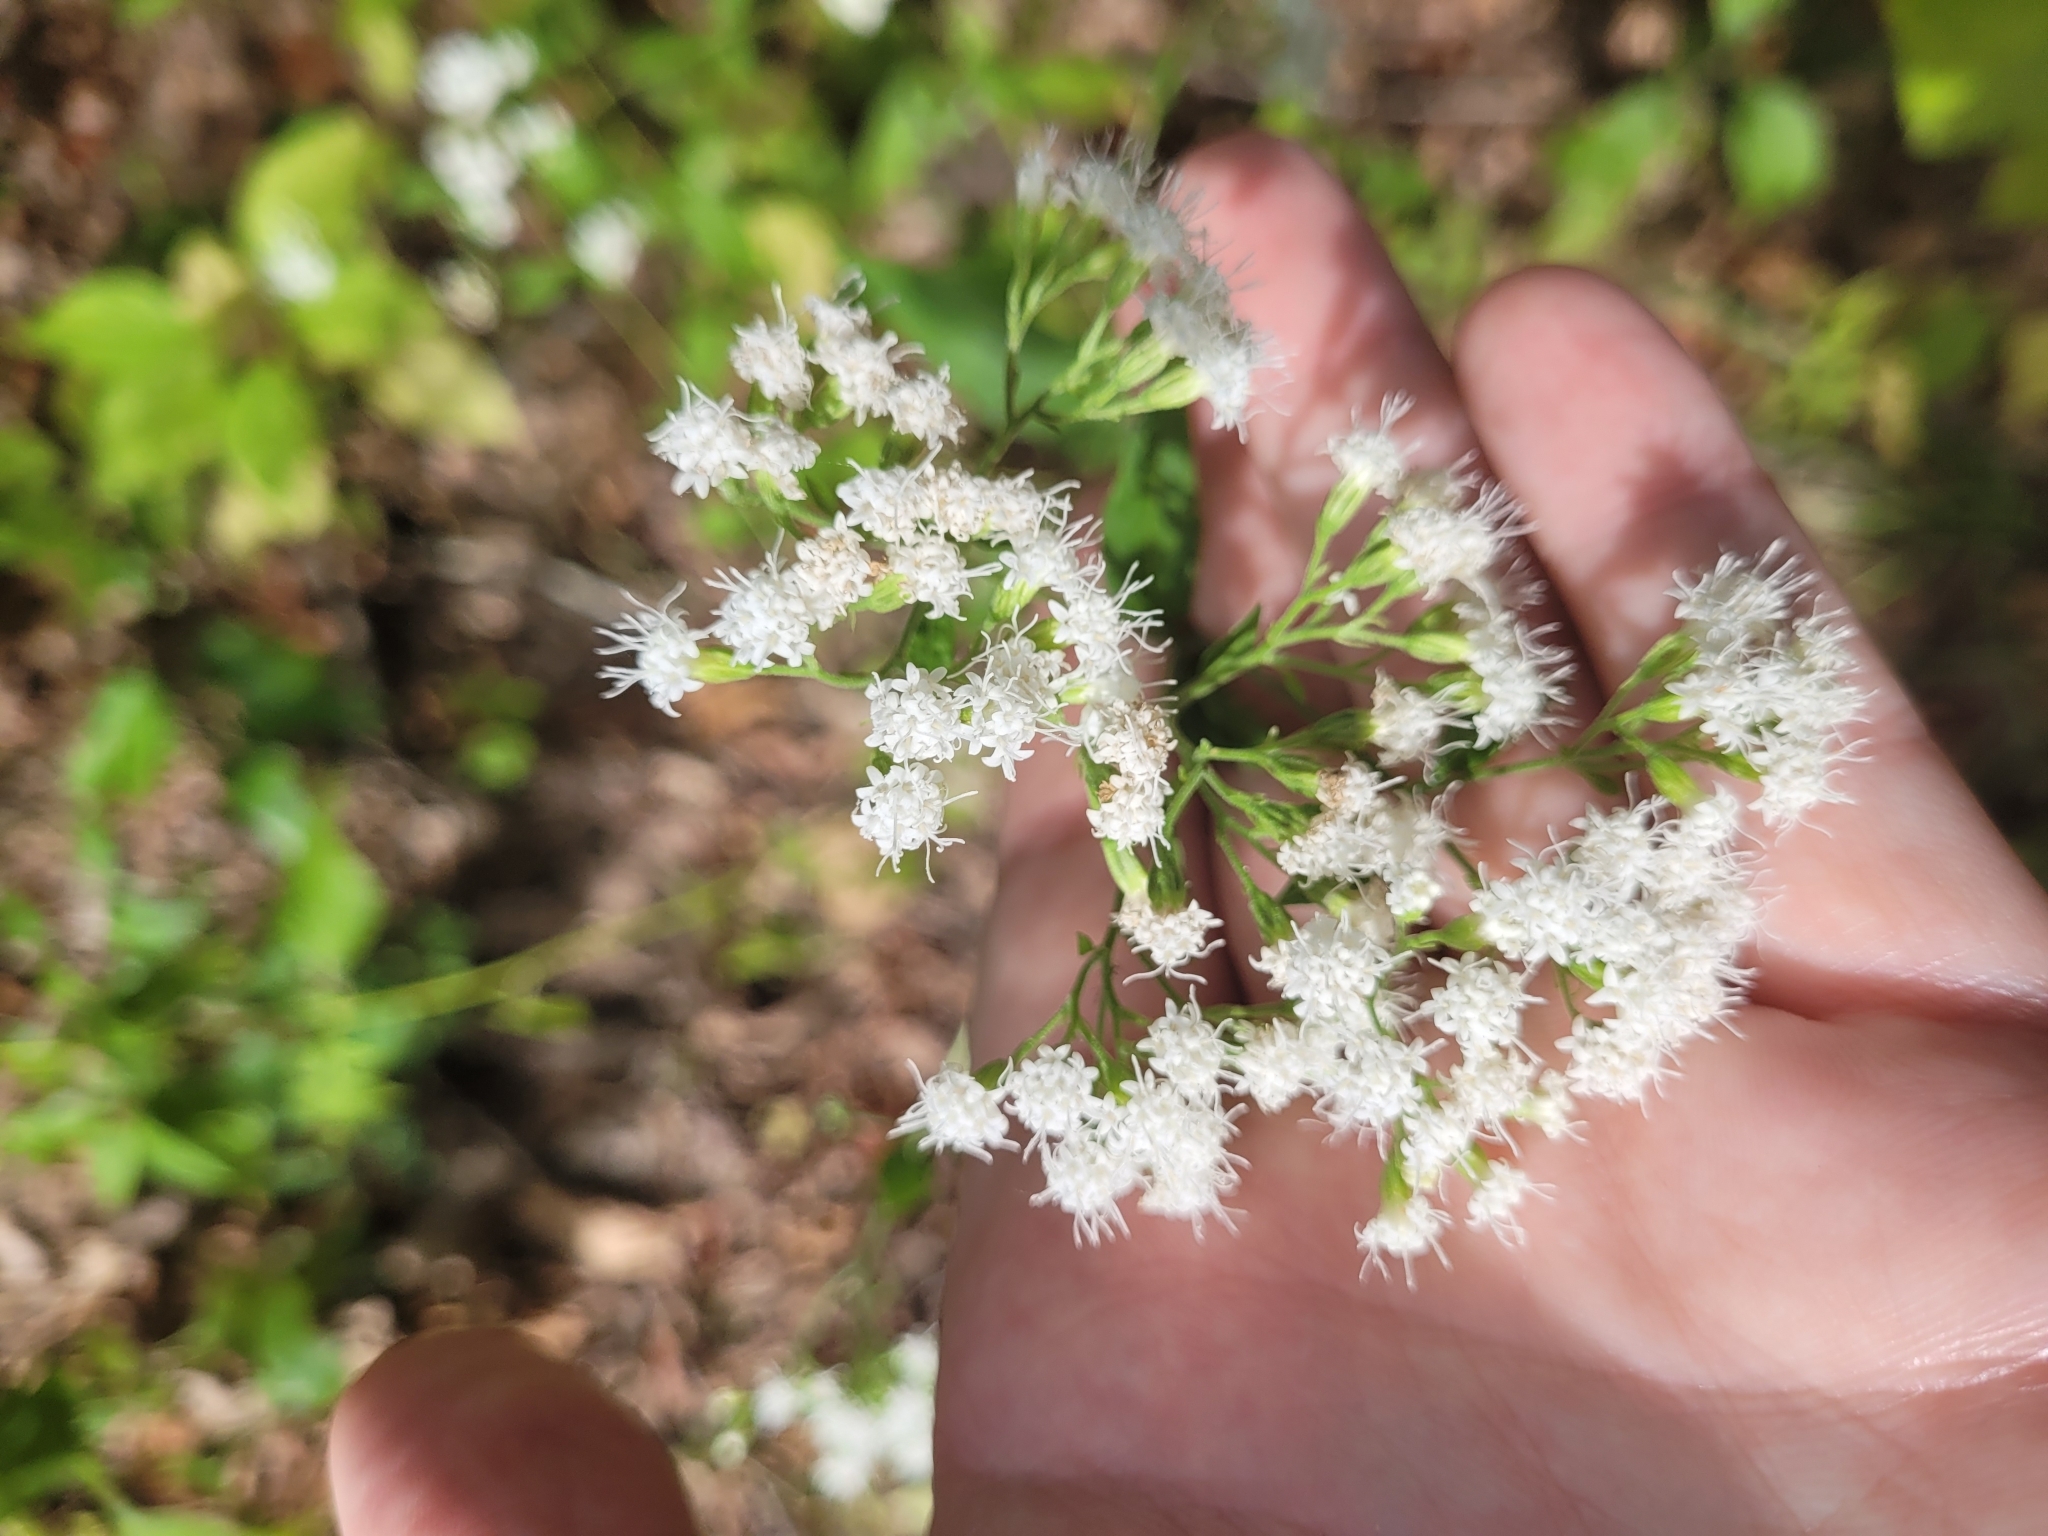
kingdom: Plantae
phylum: Tracheophyta
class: Magnoliopsida
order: Asterales
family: Asteraceae
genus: Ageratina
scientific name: Ageratina altissima
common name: White snakeroot
